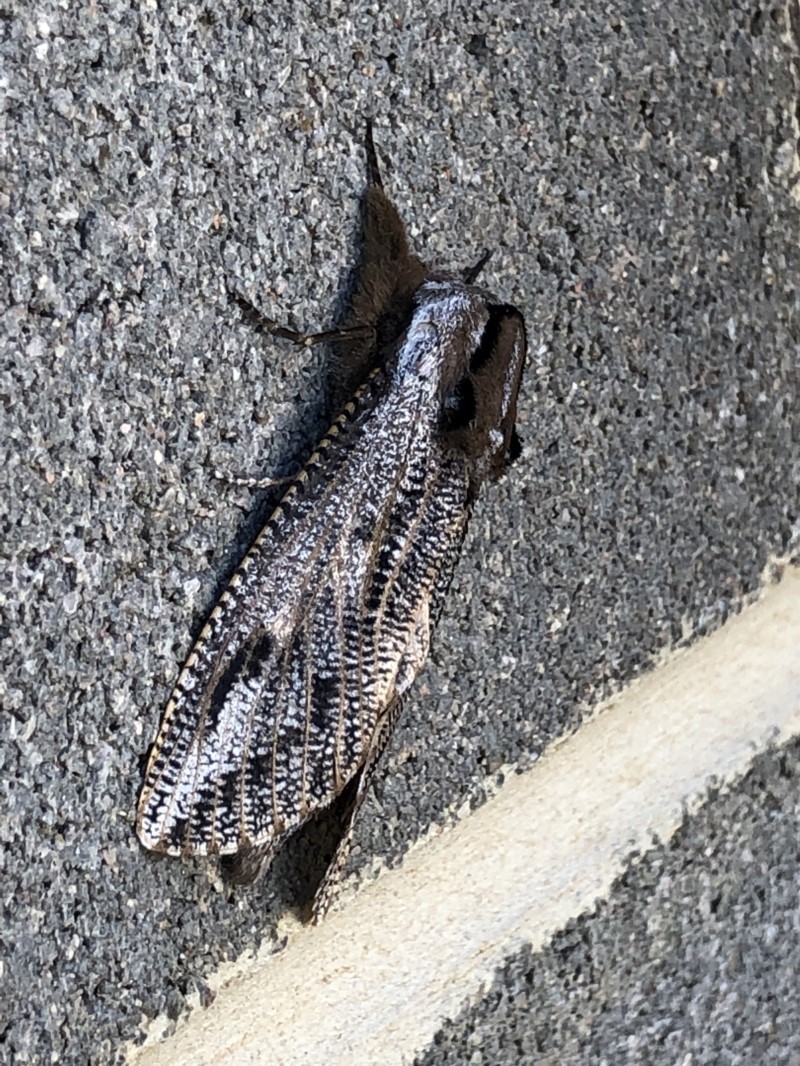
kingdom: Animalia
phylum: Arthropoda
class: Insecta
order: Lepidoptera
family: Cossidae
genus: Endoxyla
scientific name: Endoxyla encalypti
